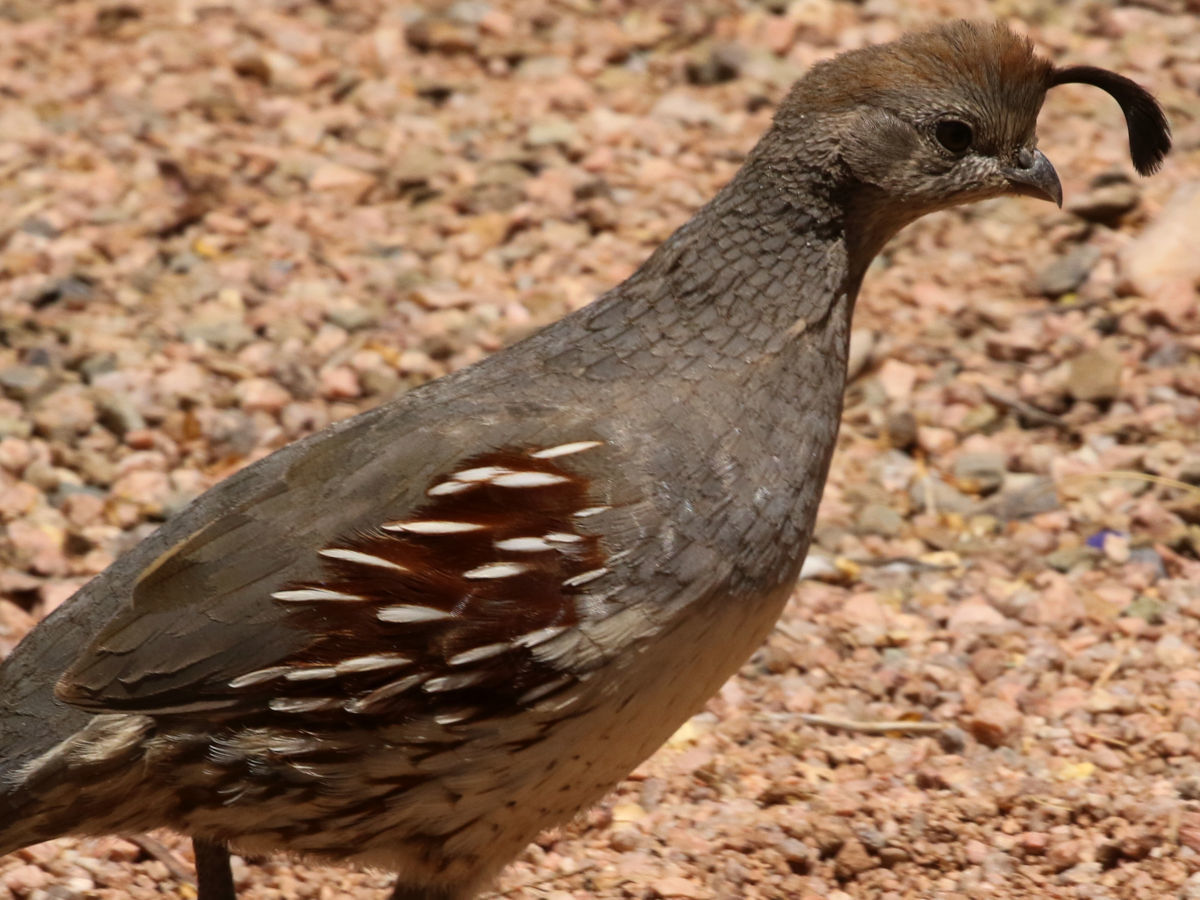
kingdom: Animalia
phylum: Chordata
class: Aves
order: Galliformes
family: Odontophoridae
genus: Callipepla
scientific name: Callipepla gambelii
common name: Gambel's quail
